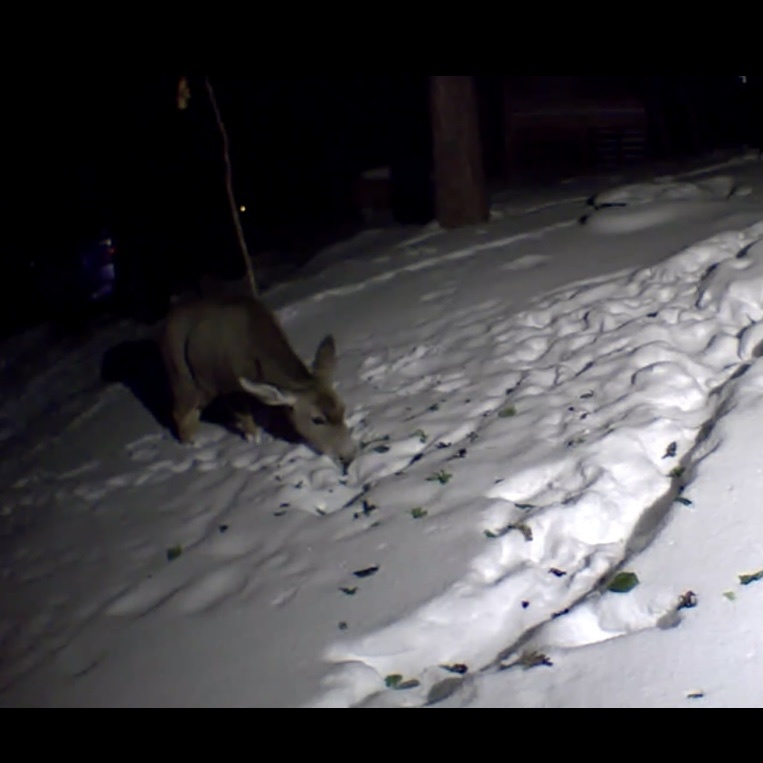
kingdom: Animalia
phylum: Chordata
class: Mammalia
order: Artiodactyla
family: Cervidae
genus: Odocoileus
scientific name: Odocoileus hemionus
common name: Mule deer
